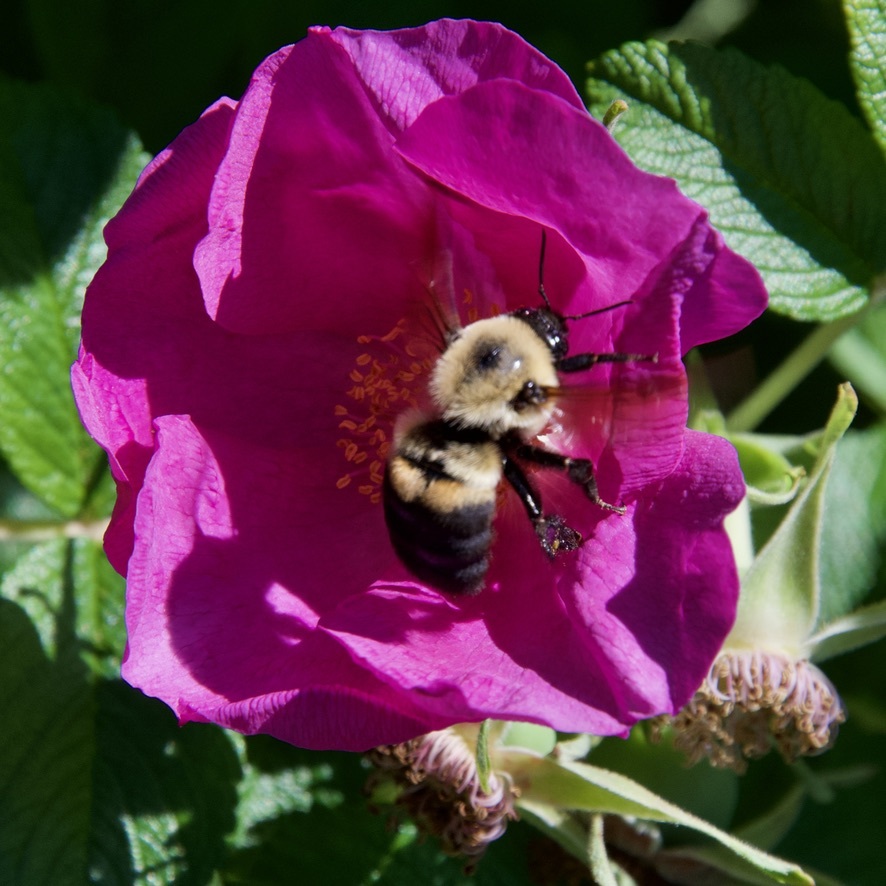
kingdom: Animalia
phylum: Arthropoda
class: Insecta
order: Hymenoptera
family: Apidae
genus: Bombus
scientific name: Bombus griseocollis
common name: Brown-belted bumble bee
